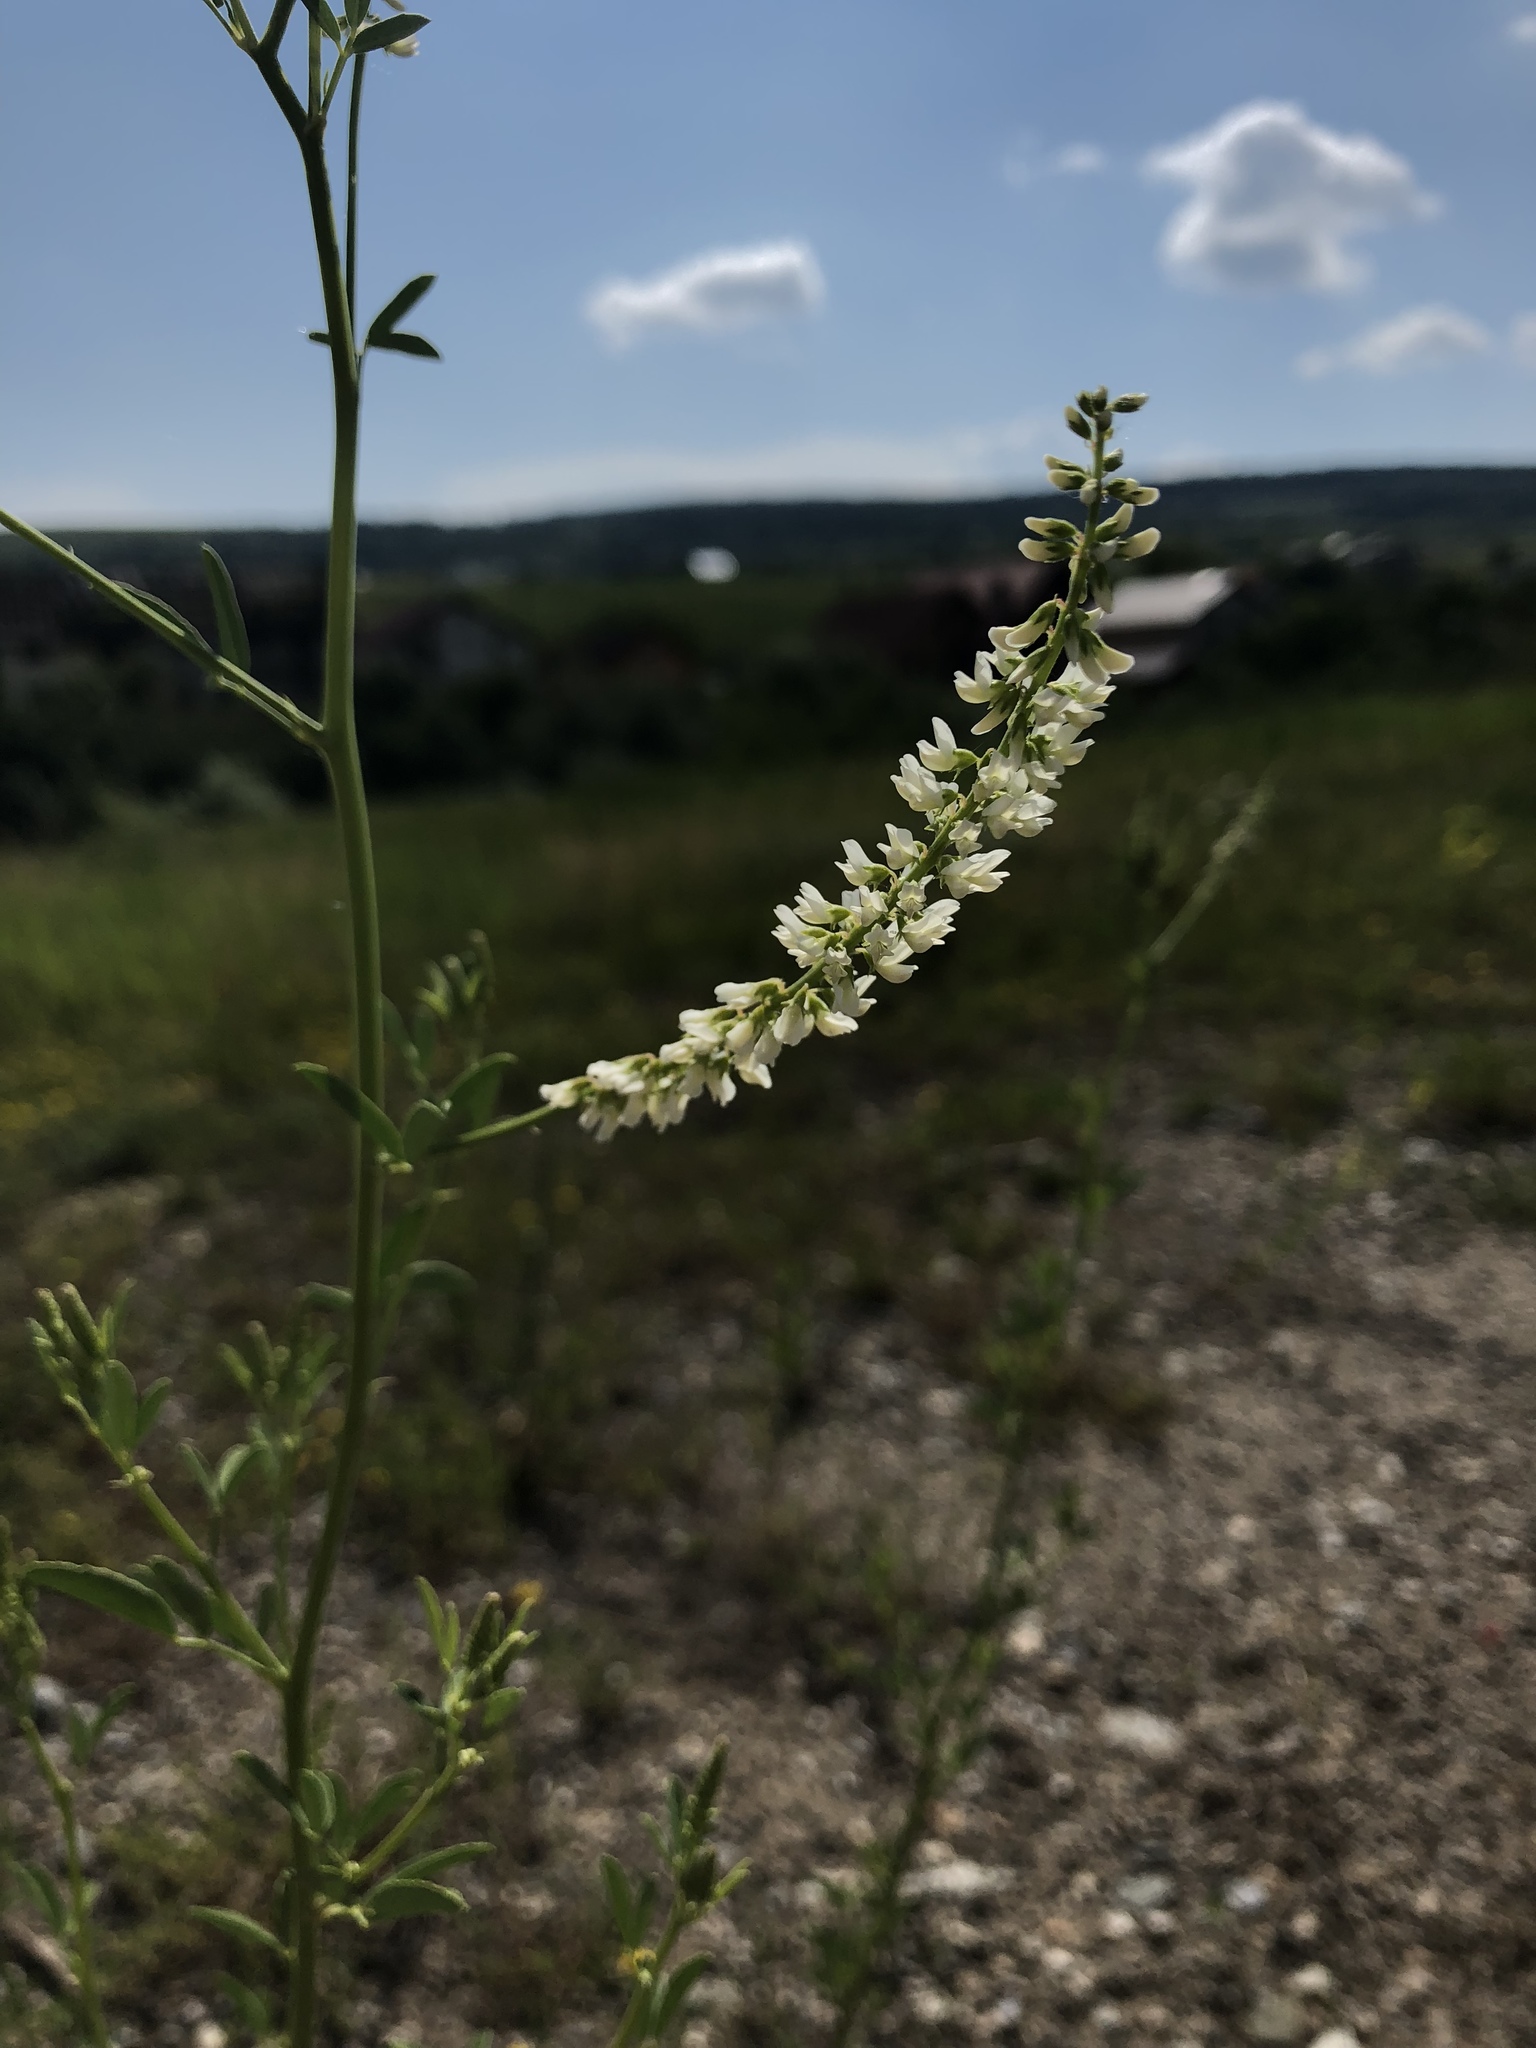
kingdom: Plantae
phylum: Tracheophyta
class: Magnoliopsida
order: Fabales
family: Fabaceae
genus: Melilotus
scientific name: Melilotus albus
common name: White melilot
